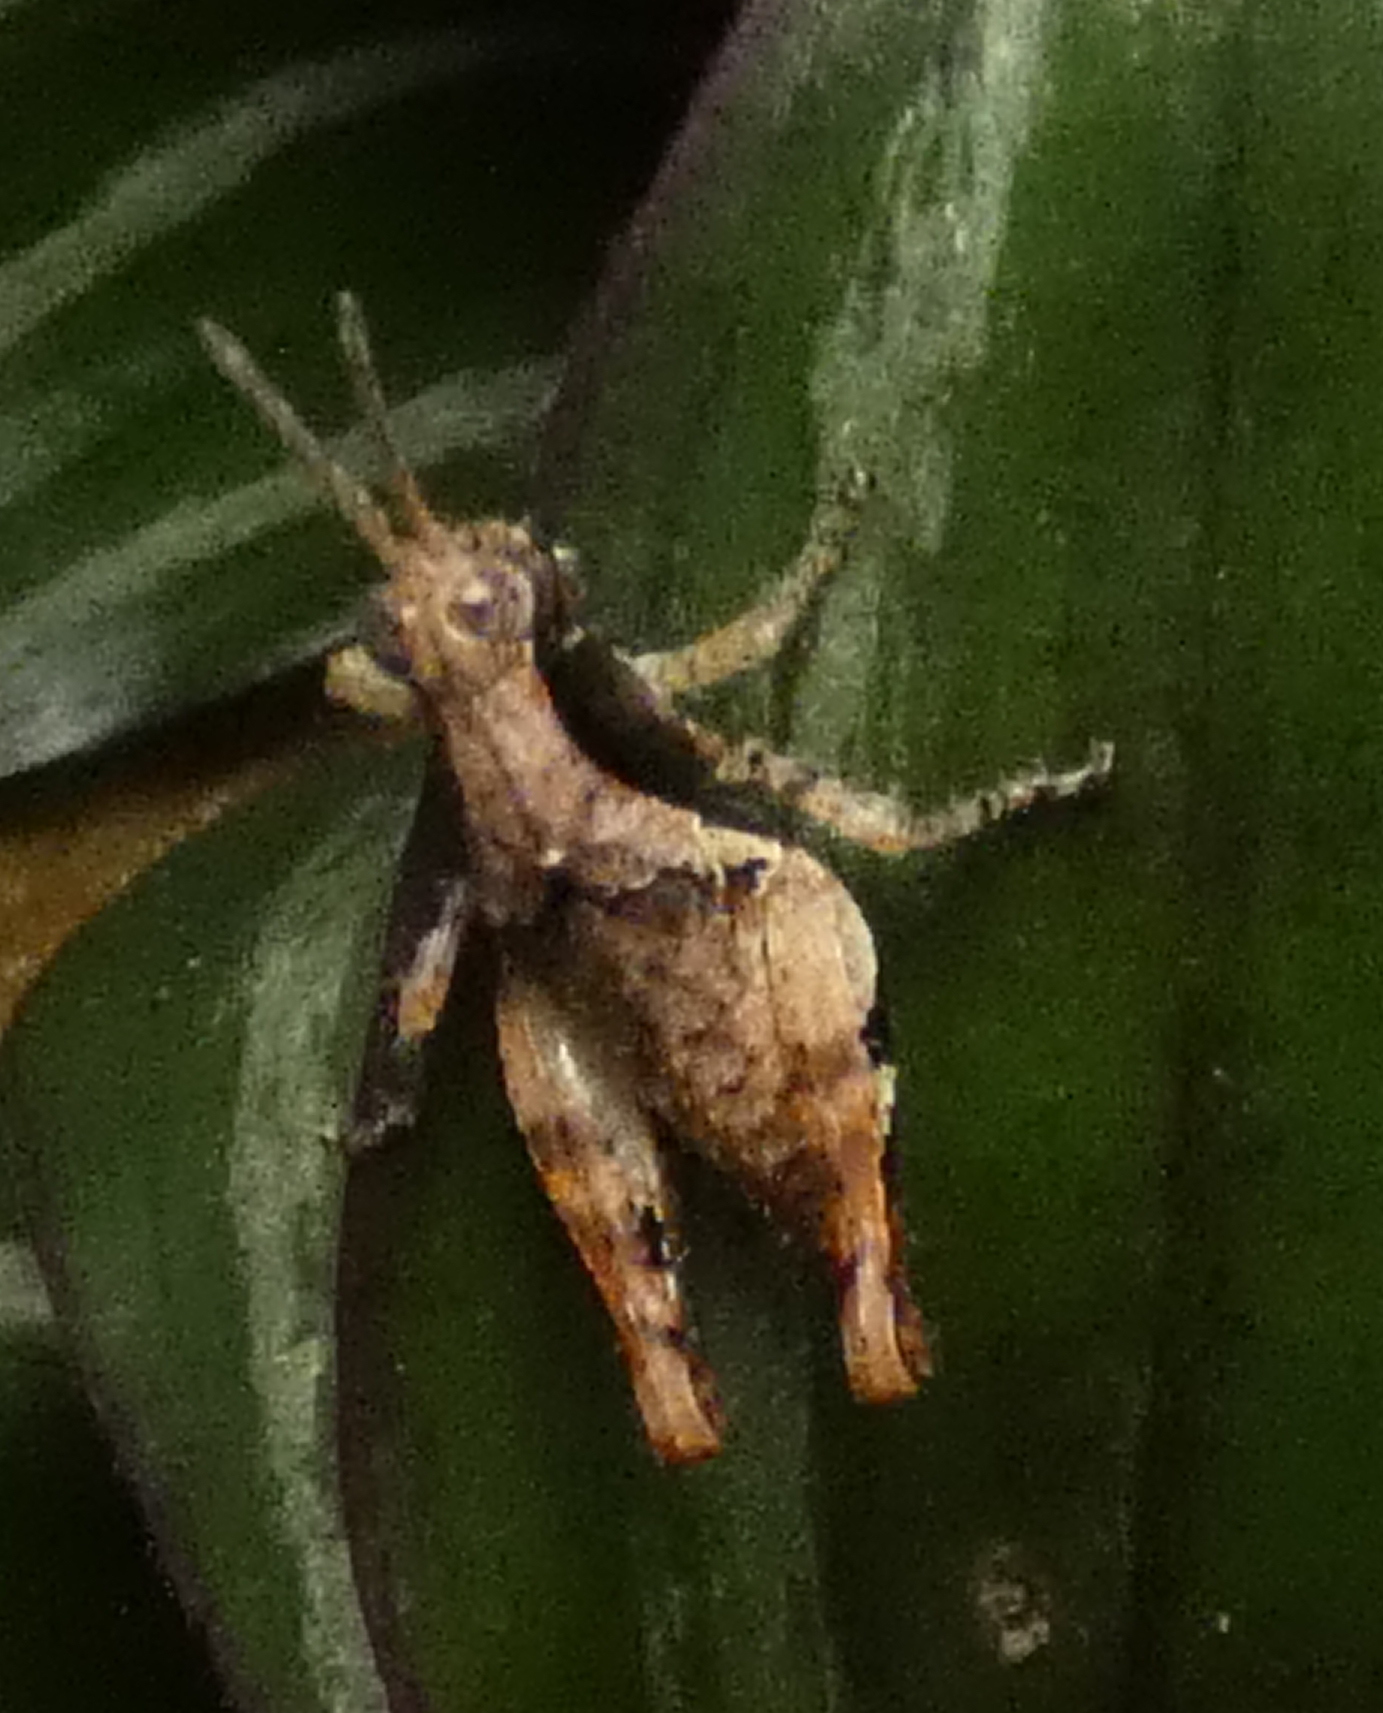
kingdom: Animalia
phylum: Arthropoda
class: Insecta
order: Orthoptera
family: Acrididae
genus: Eujivarus
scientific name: Eujivarus meridionalis
